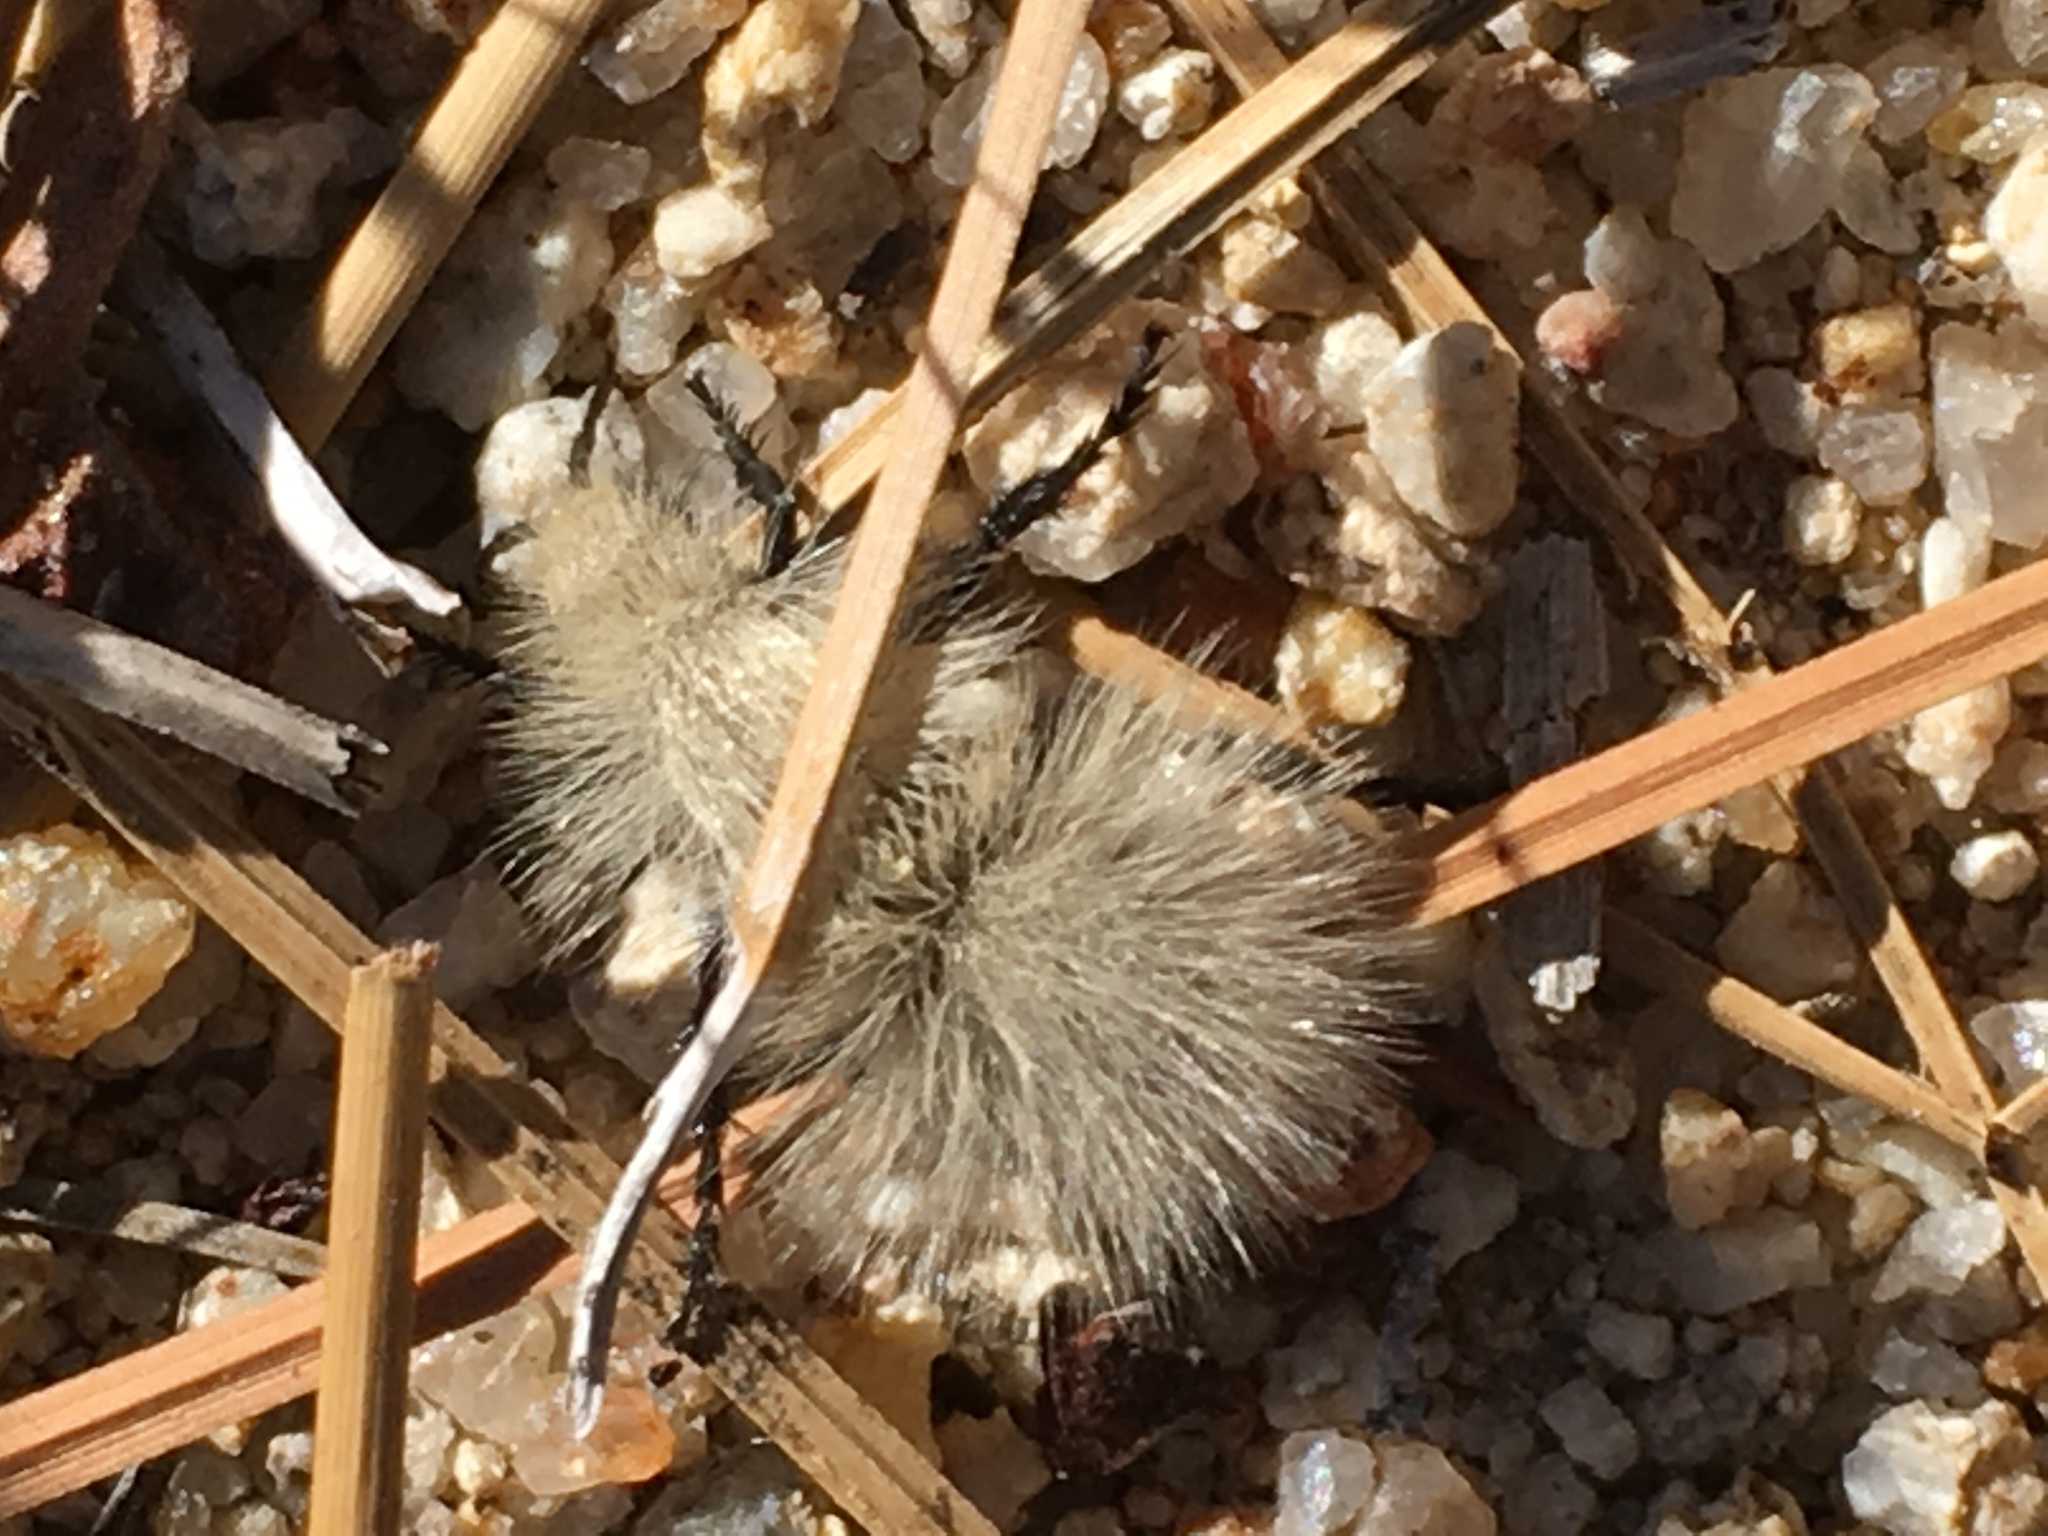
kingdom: Animalia
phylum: Arthropoda
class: Insecta
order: Hymenoptera
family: Mutillidae
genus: Dasymutilla
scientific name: Dasymutilla
